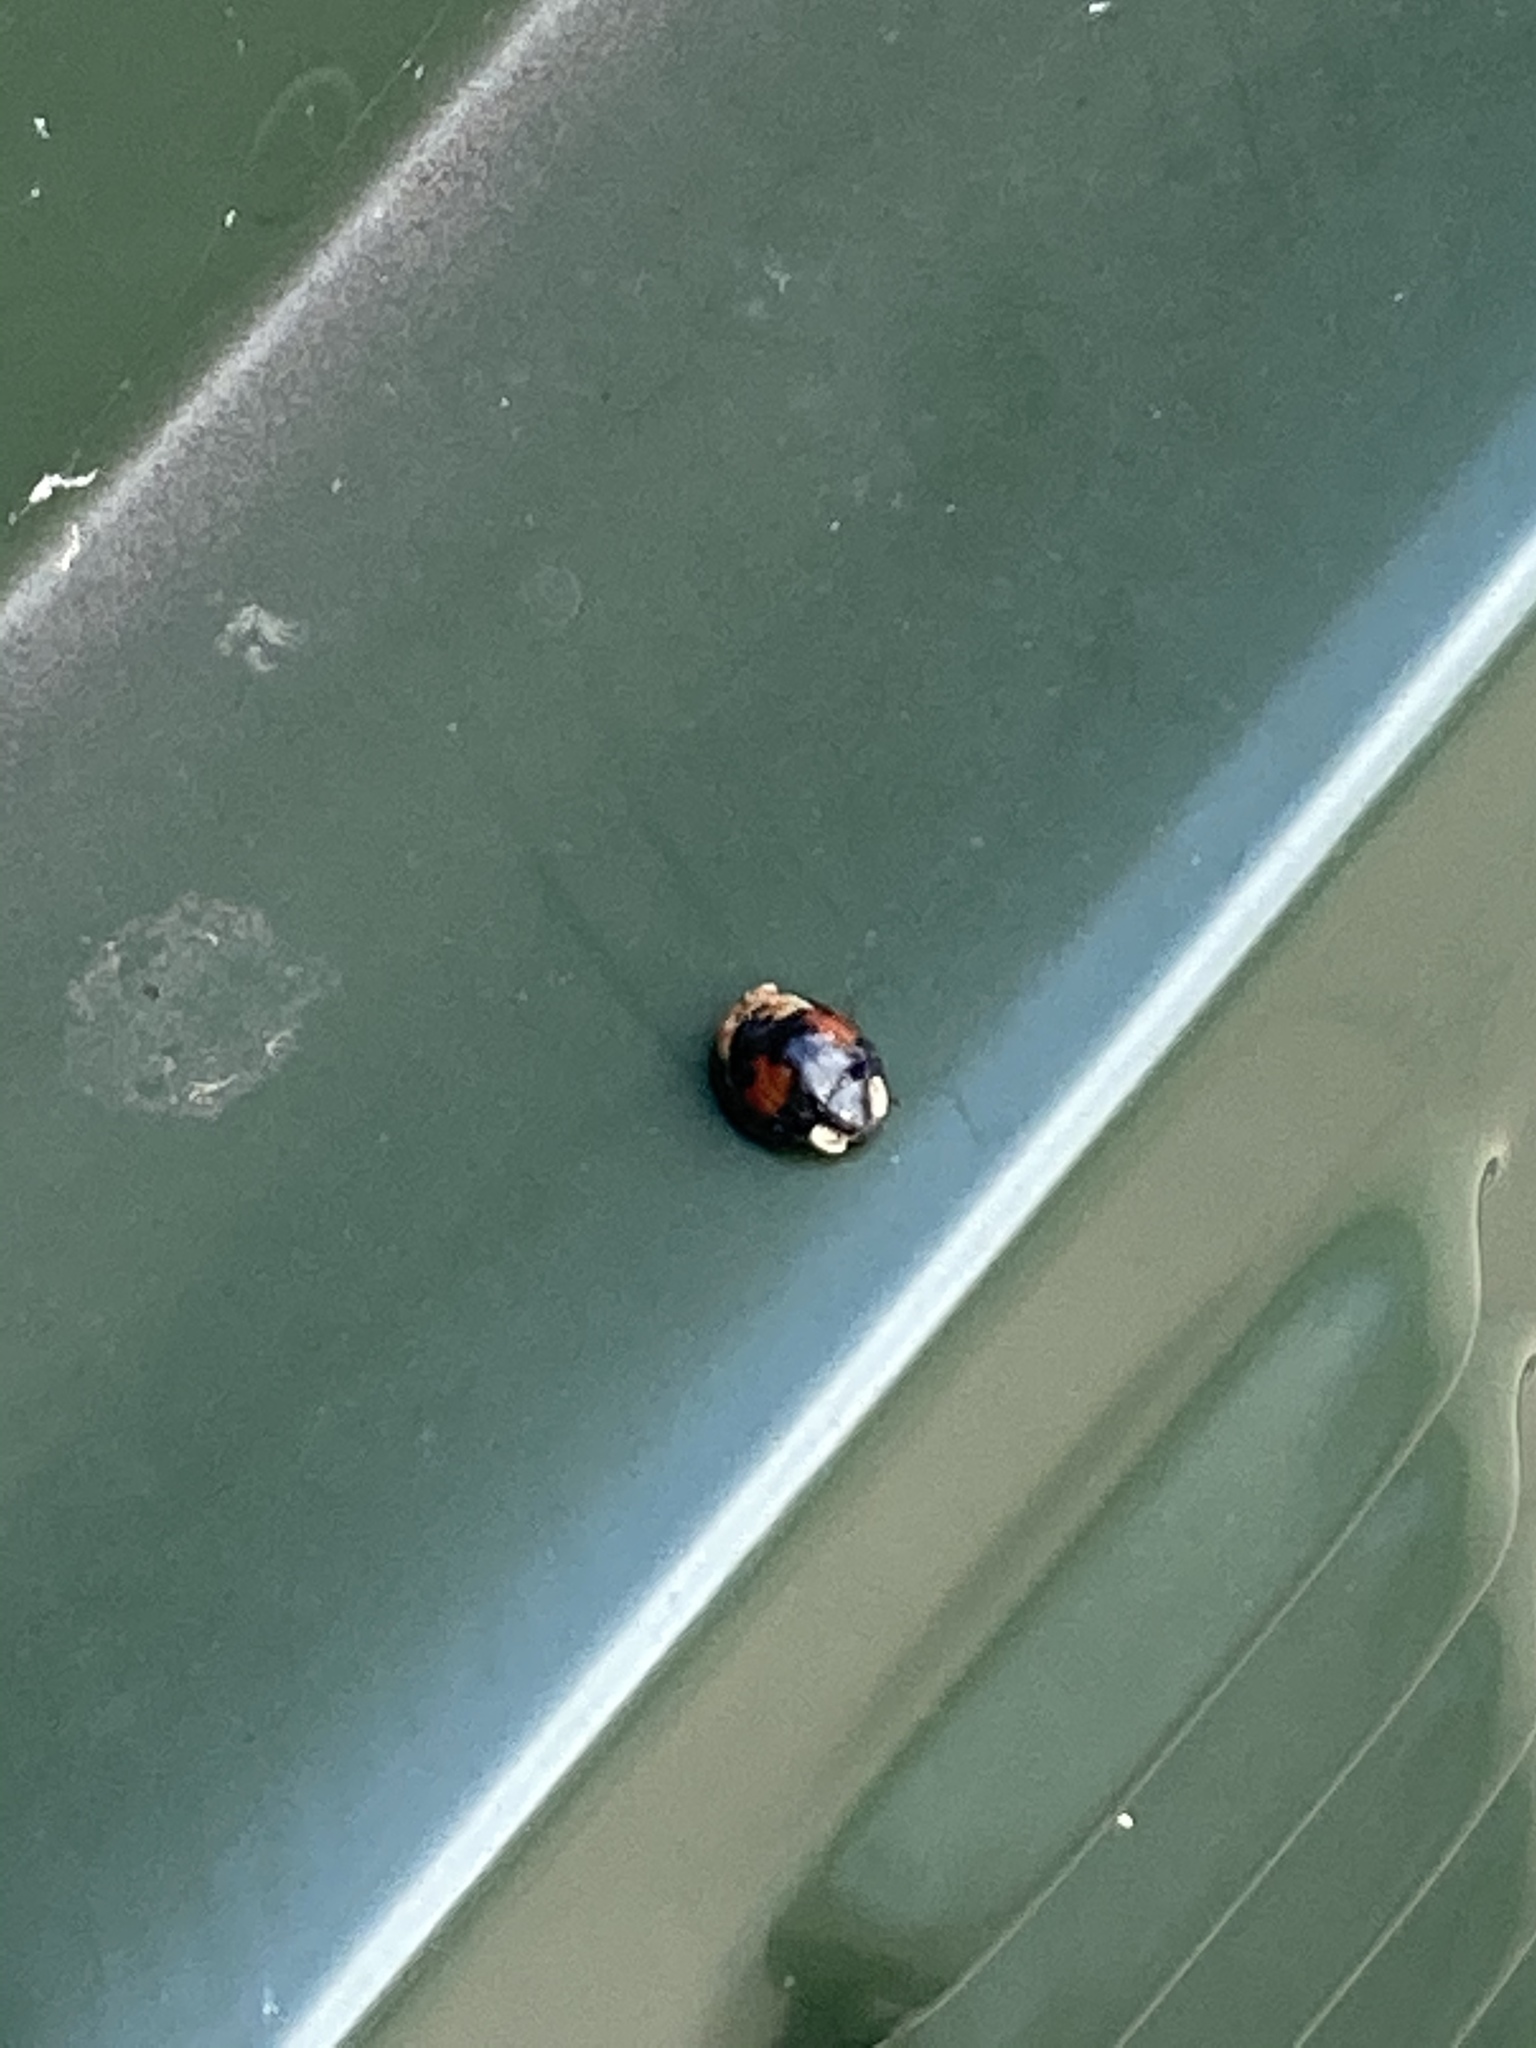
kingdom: Animalia
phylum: Arthropoda
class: Insecta
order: Coleoptera
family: Coccinellidae
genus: Harmonia
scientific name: Harmonia axyridis
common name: Harlequin ladybird
